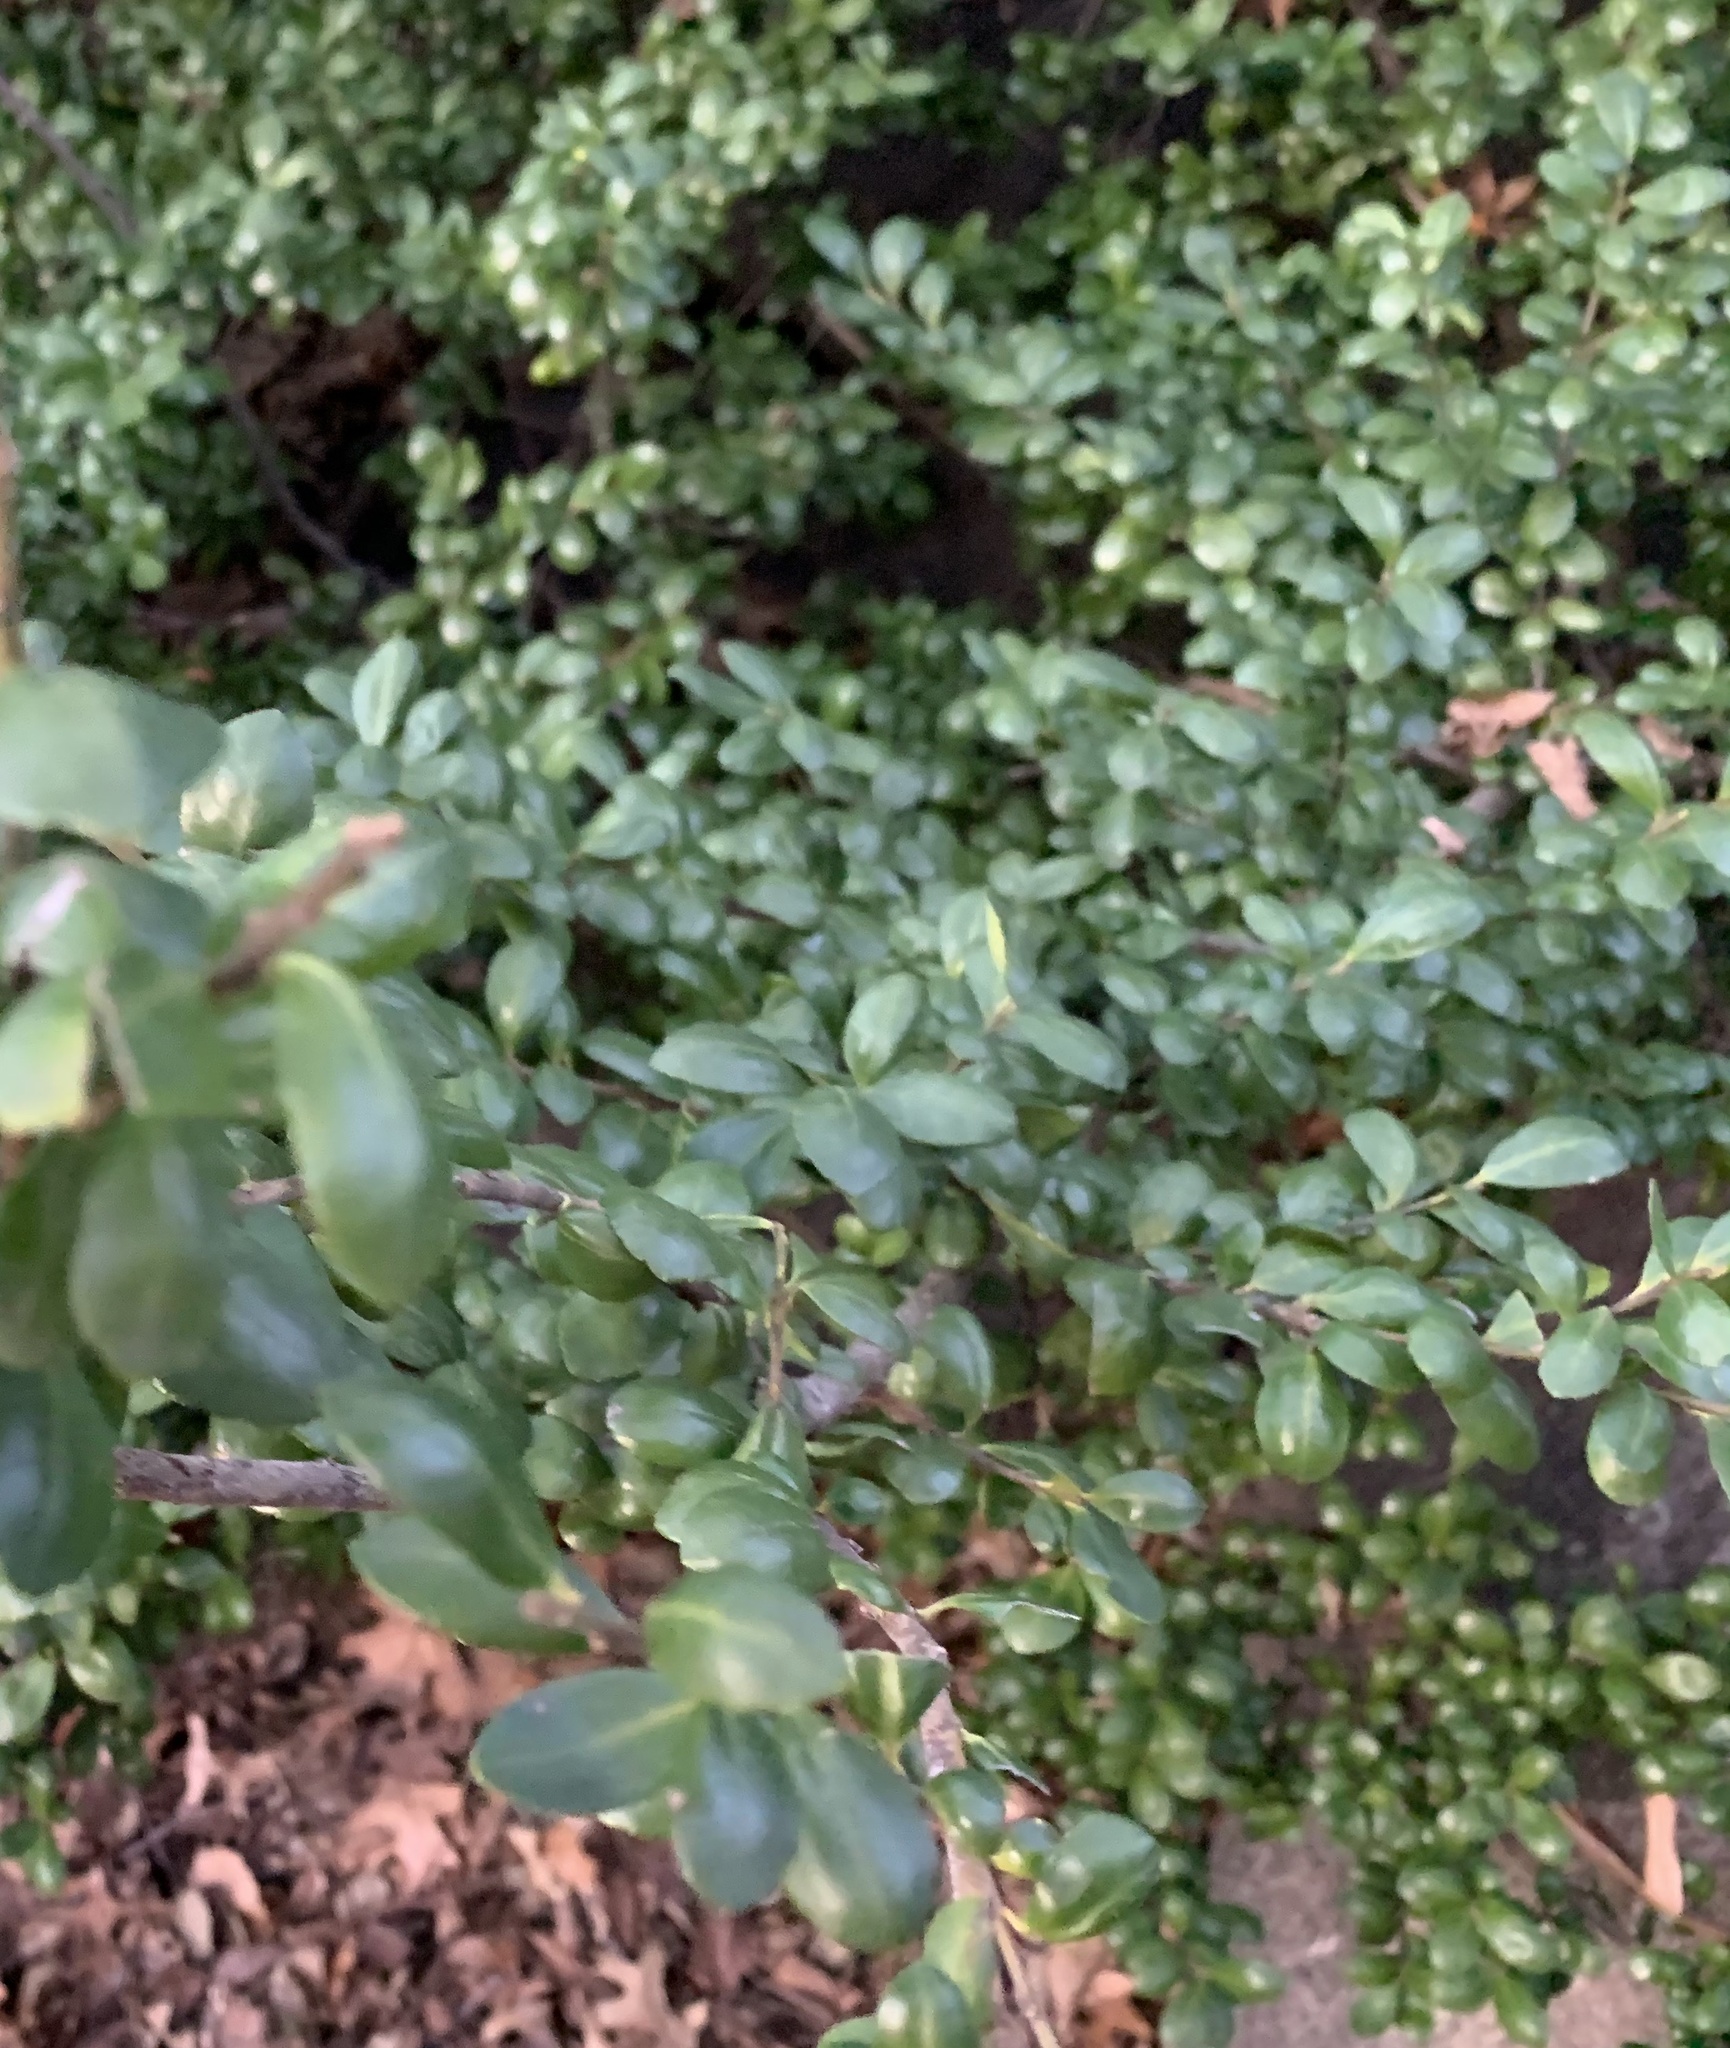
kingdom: Plantae
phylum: Tracheophyta
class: Magnoliopsida
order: Aquifoliales
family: Aquifoliaceae
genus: Ilex
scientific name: Ilex crenata
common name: Japanese holly
